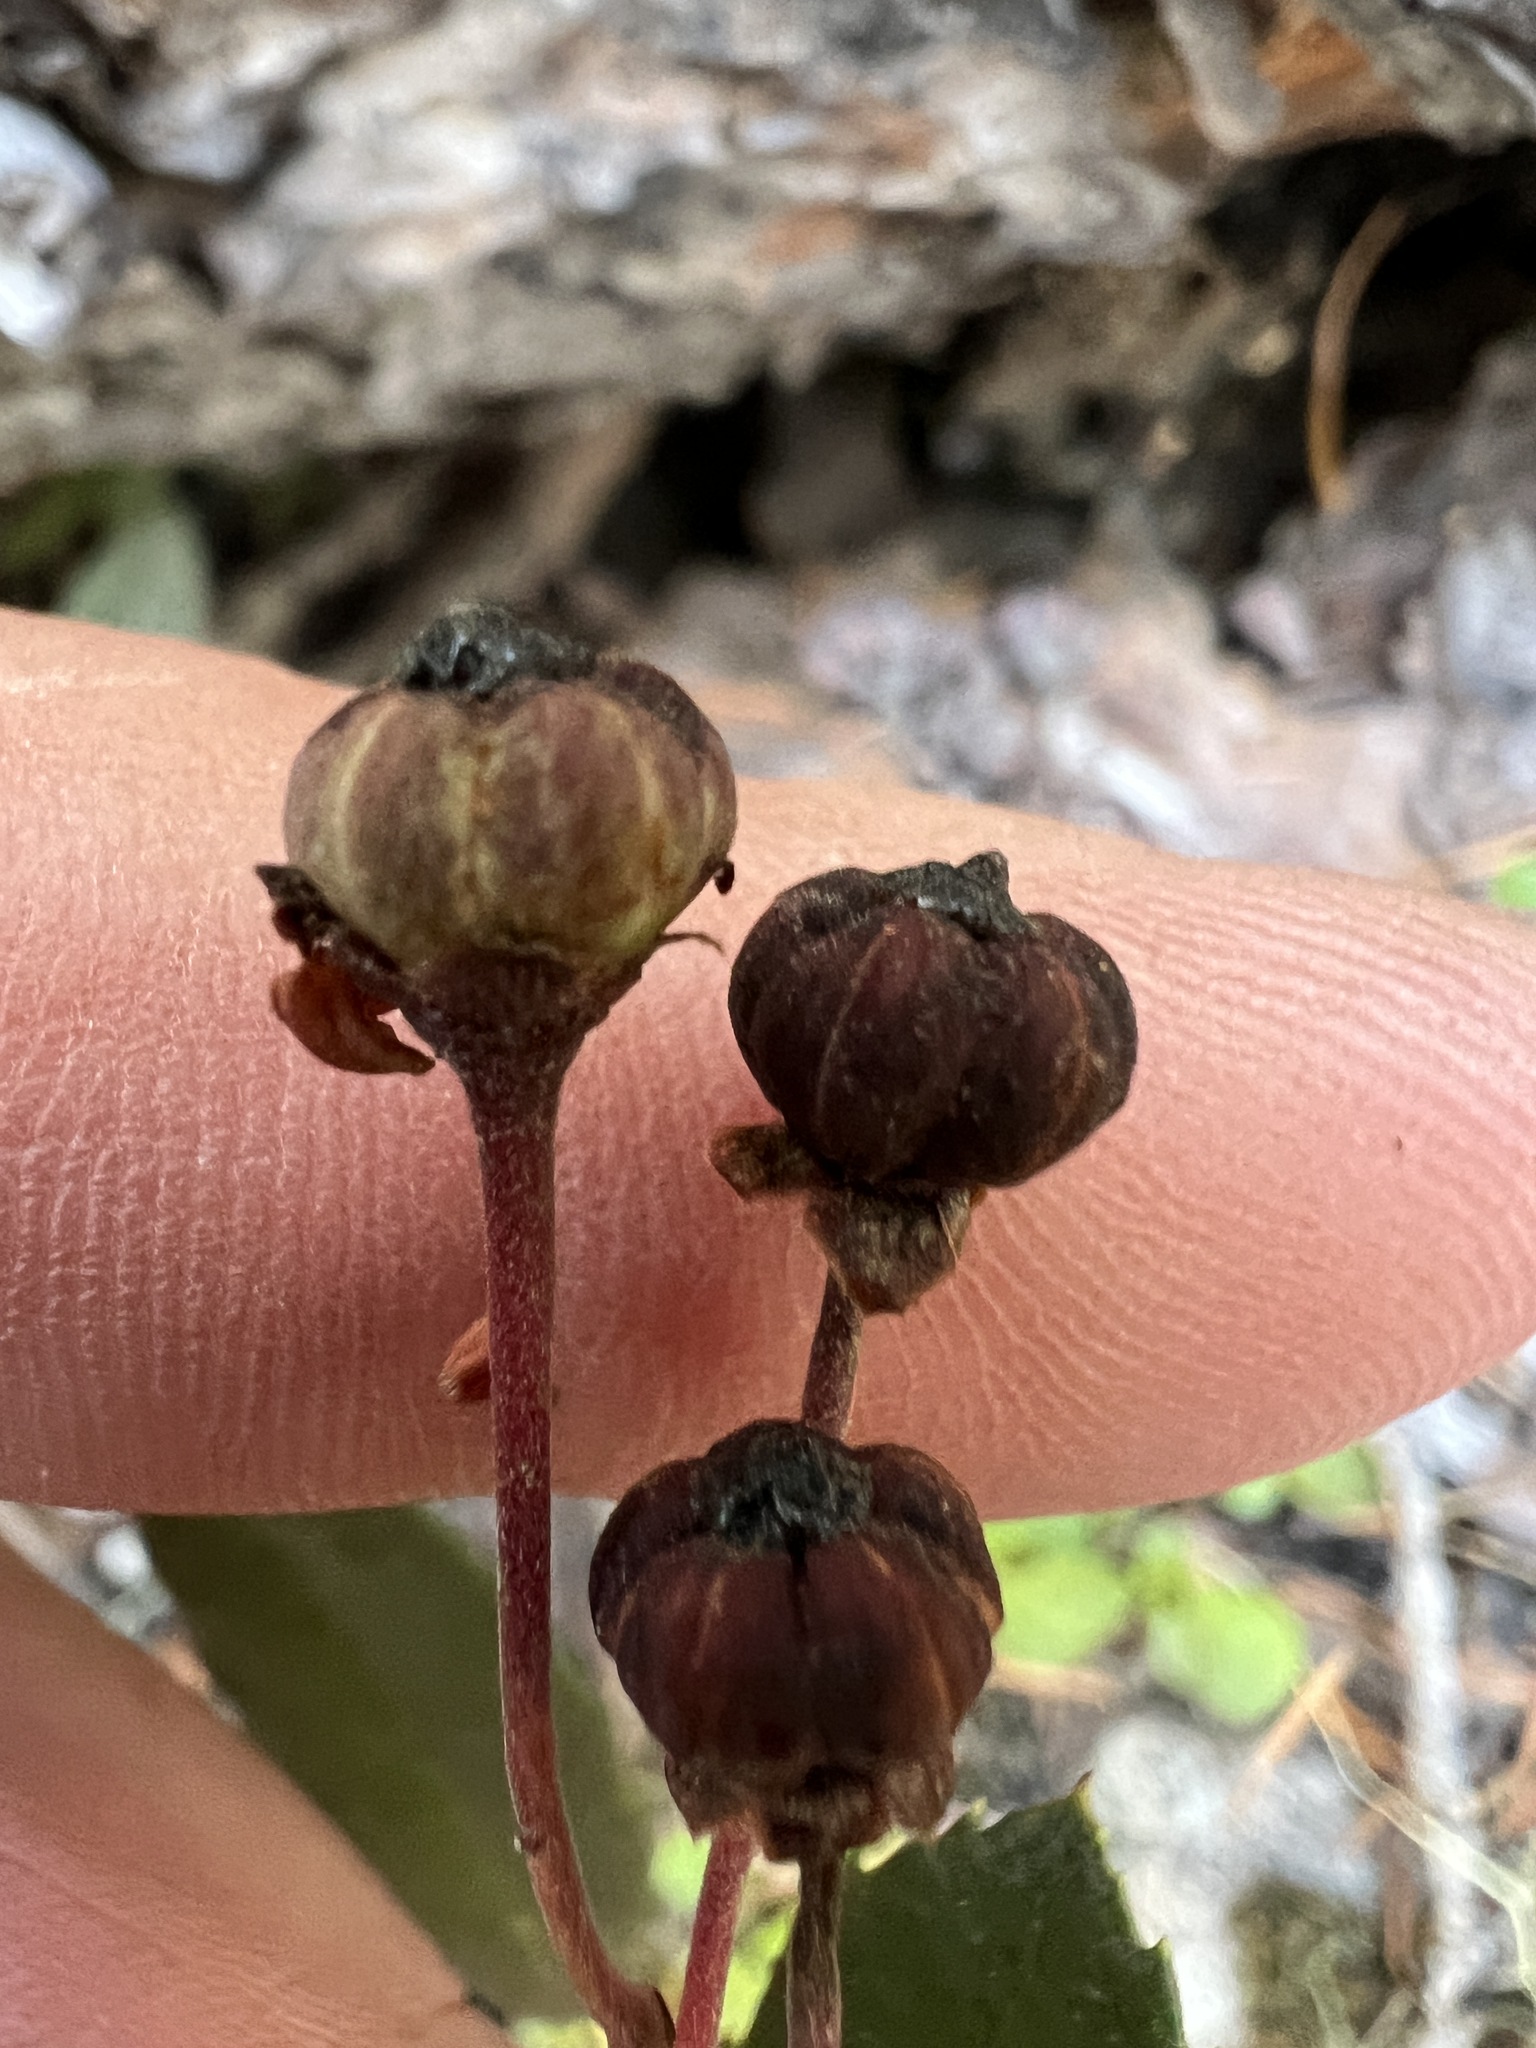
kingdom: Plantae
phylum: Tracheophyta
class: Magnoliopsida
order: Ericales
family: Ericaceae
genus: Chimaphila
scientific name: Chimaphila umbellata
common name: Pipsissewa
